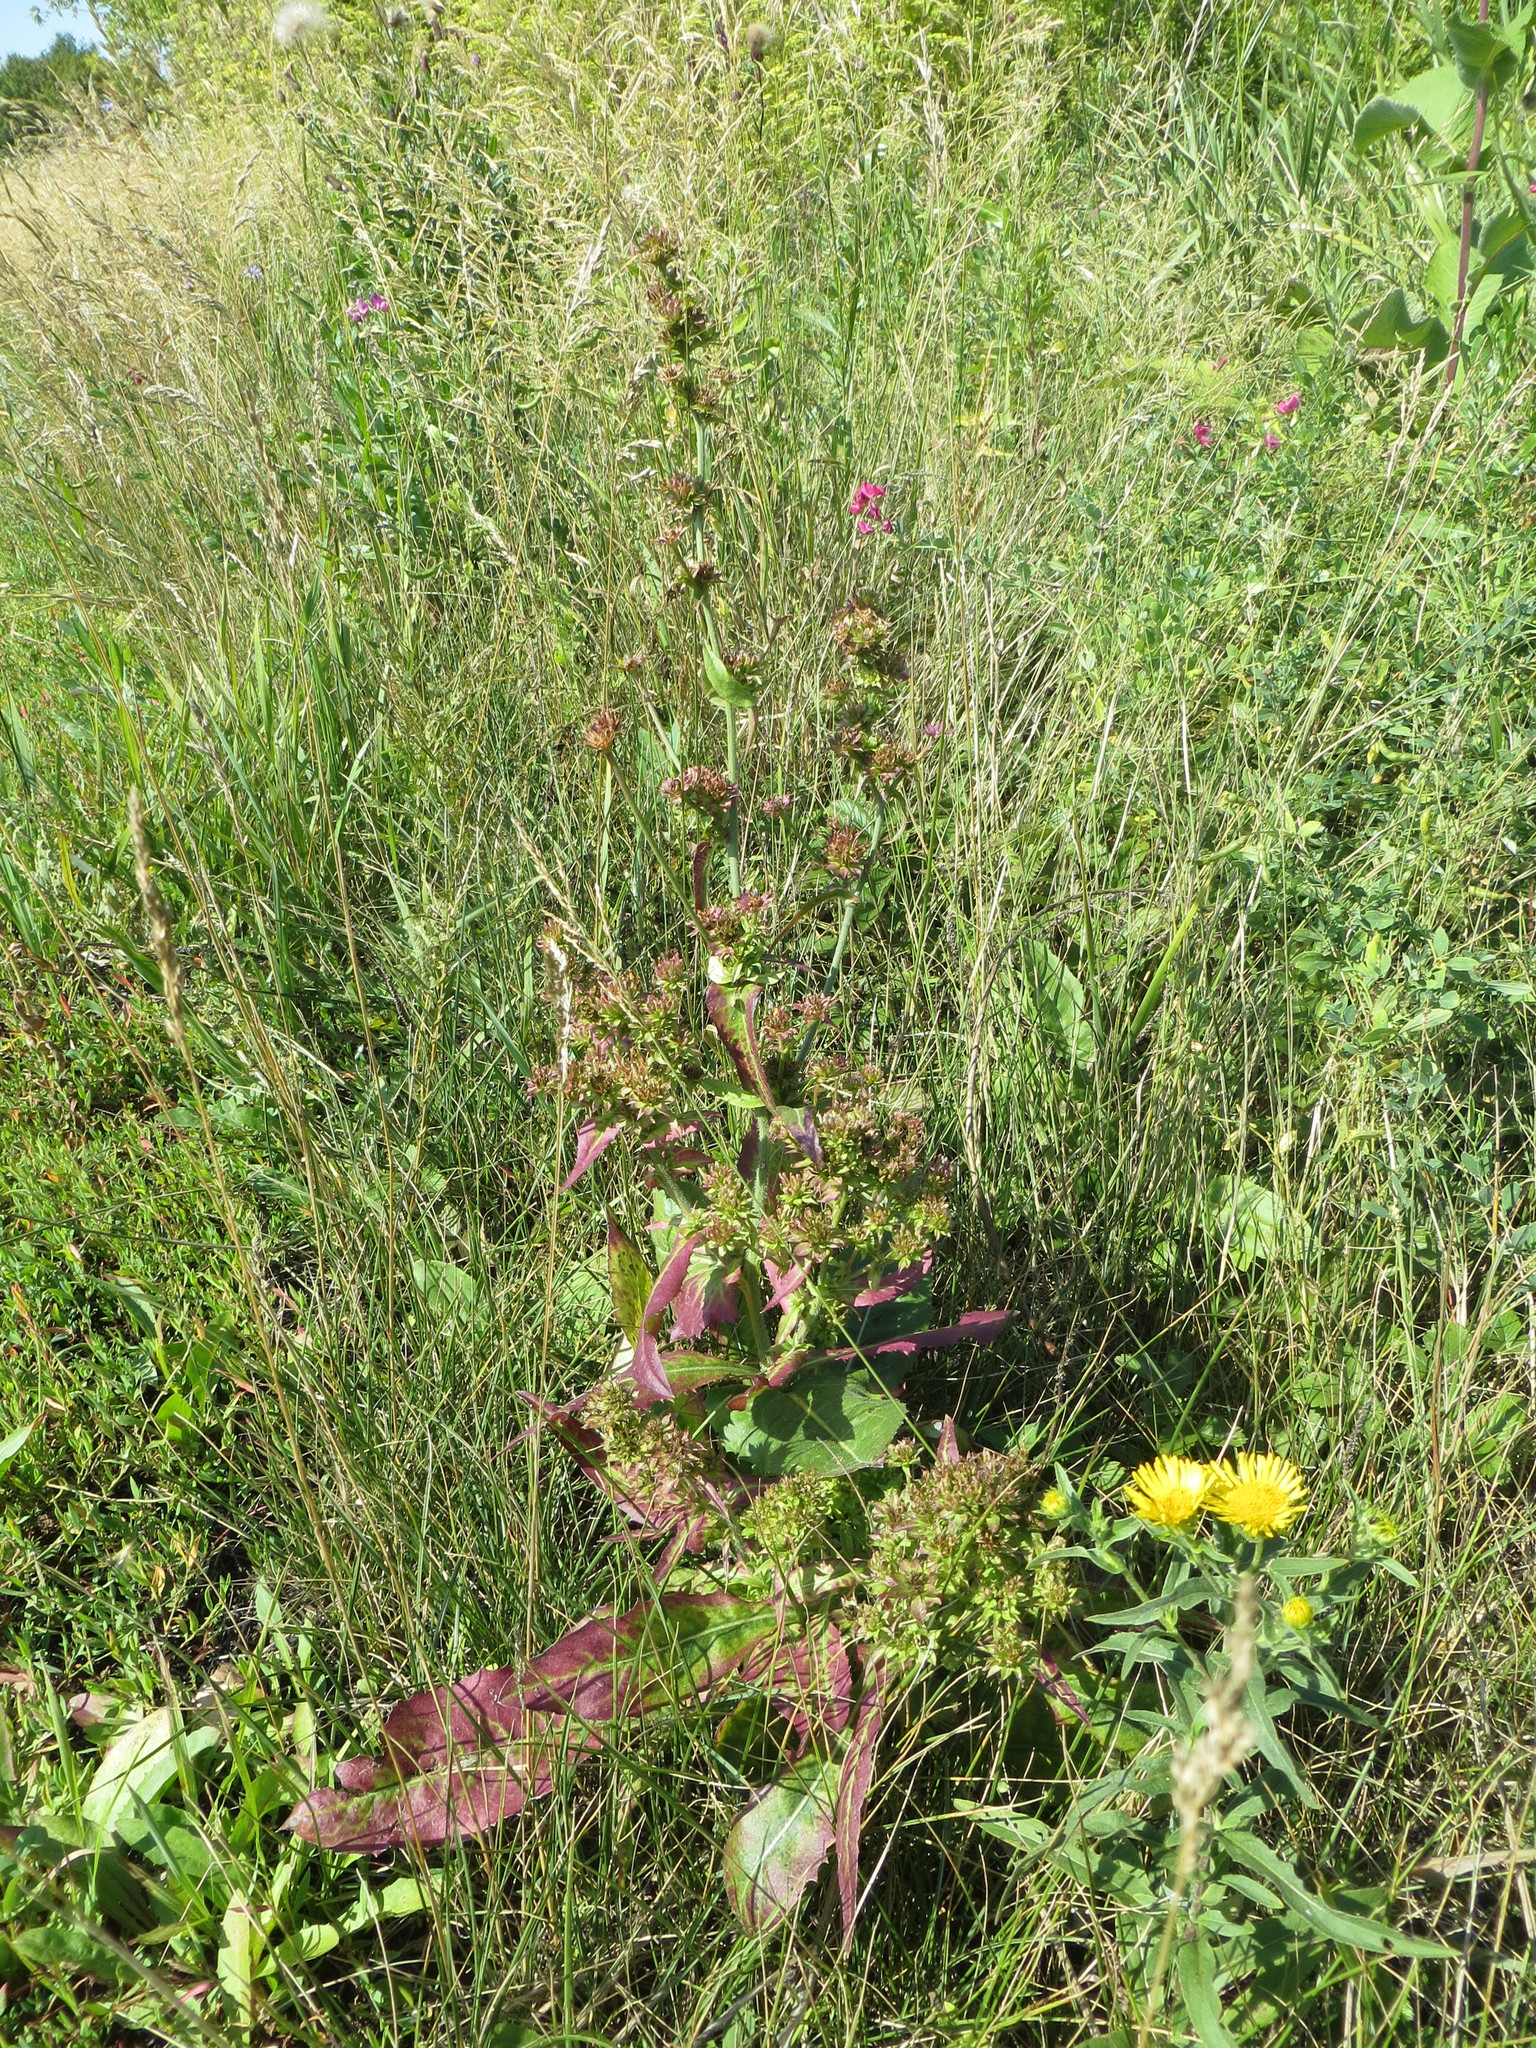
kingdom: Plantae
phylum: Tracheophyta
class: Magnoliopsida
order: Asterales
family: Asteraceae
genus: Cichorium
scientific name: Cichorium intybus
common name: Chicory
